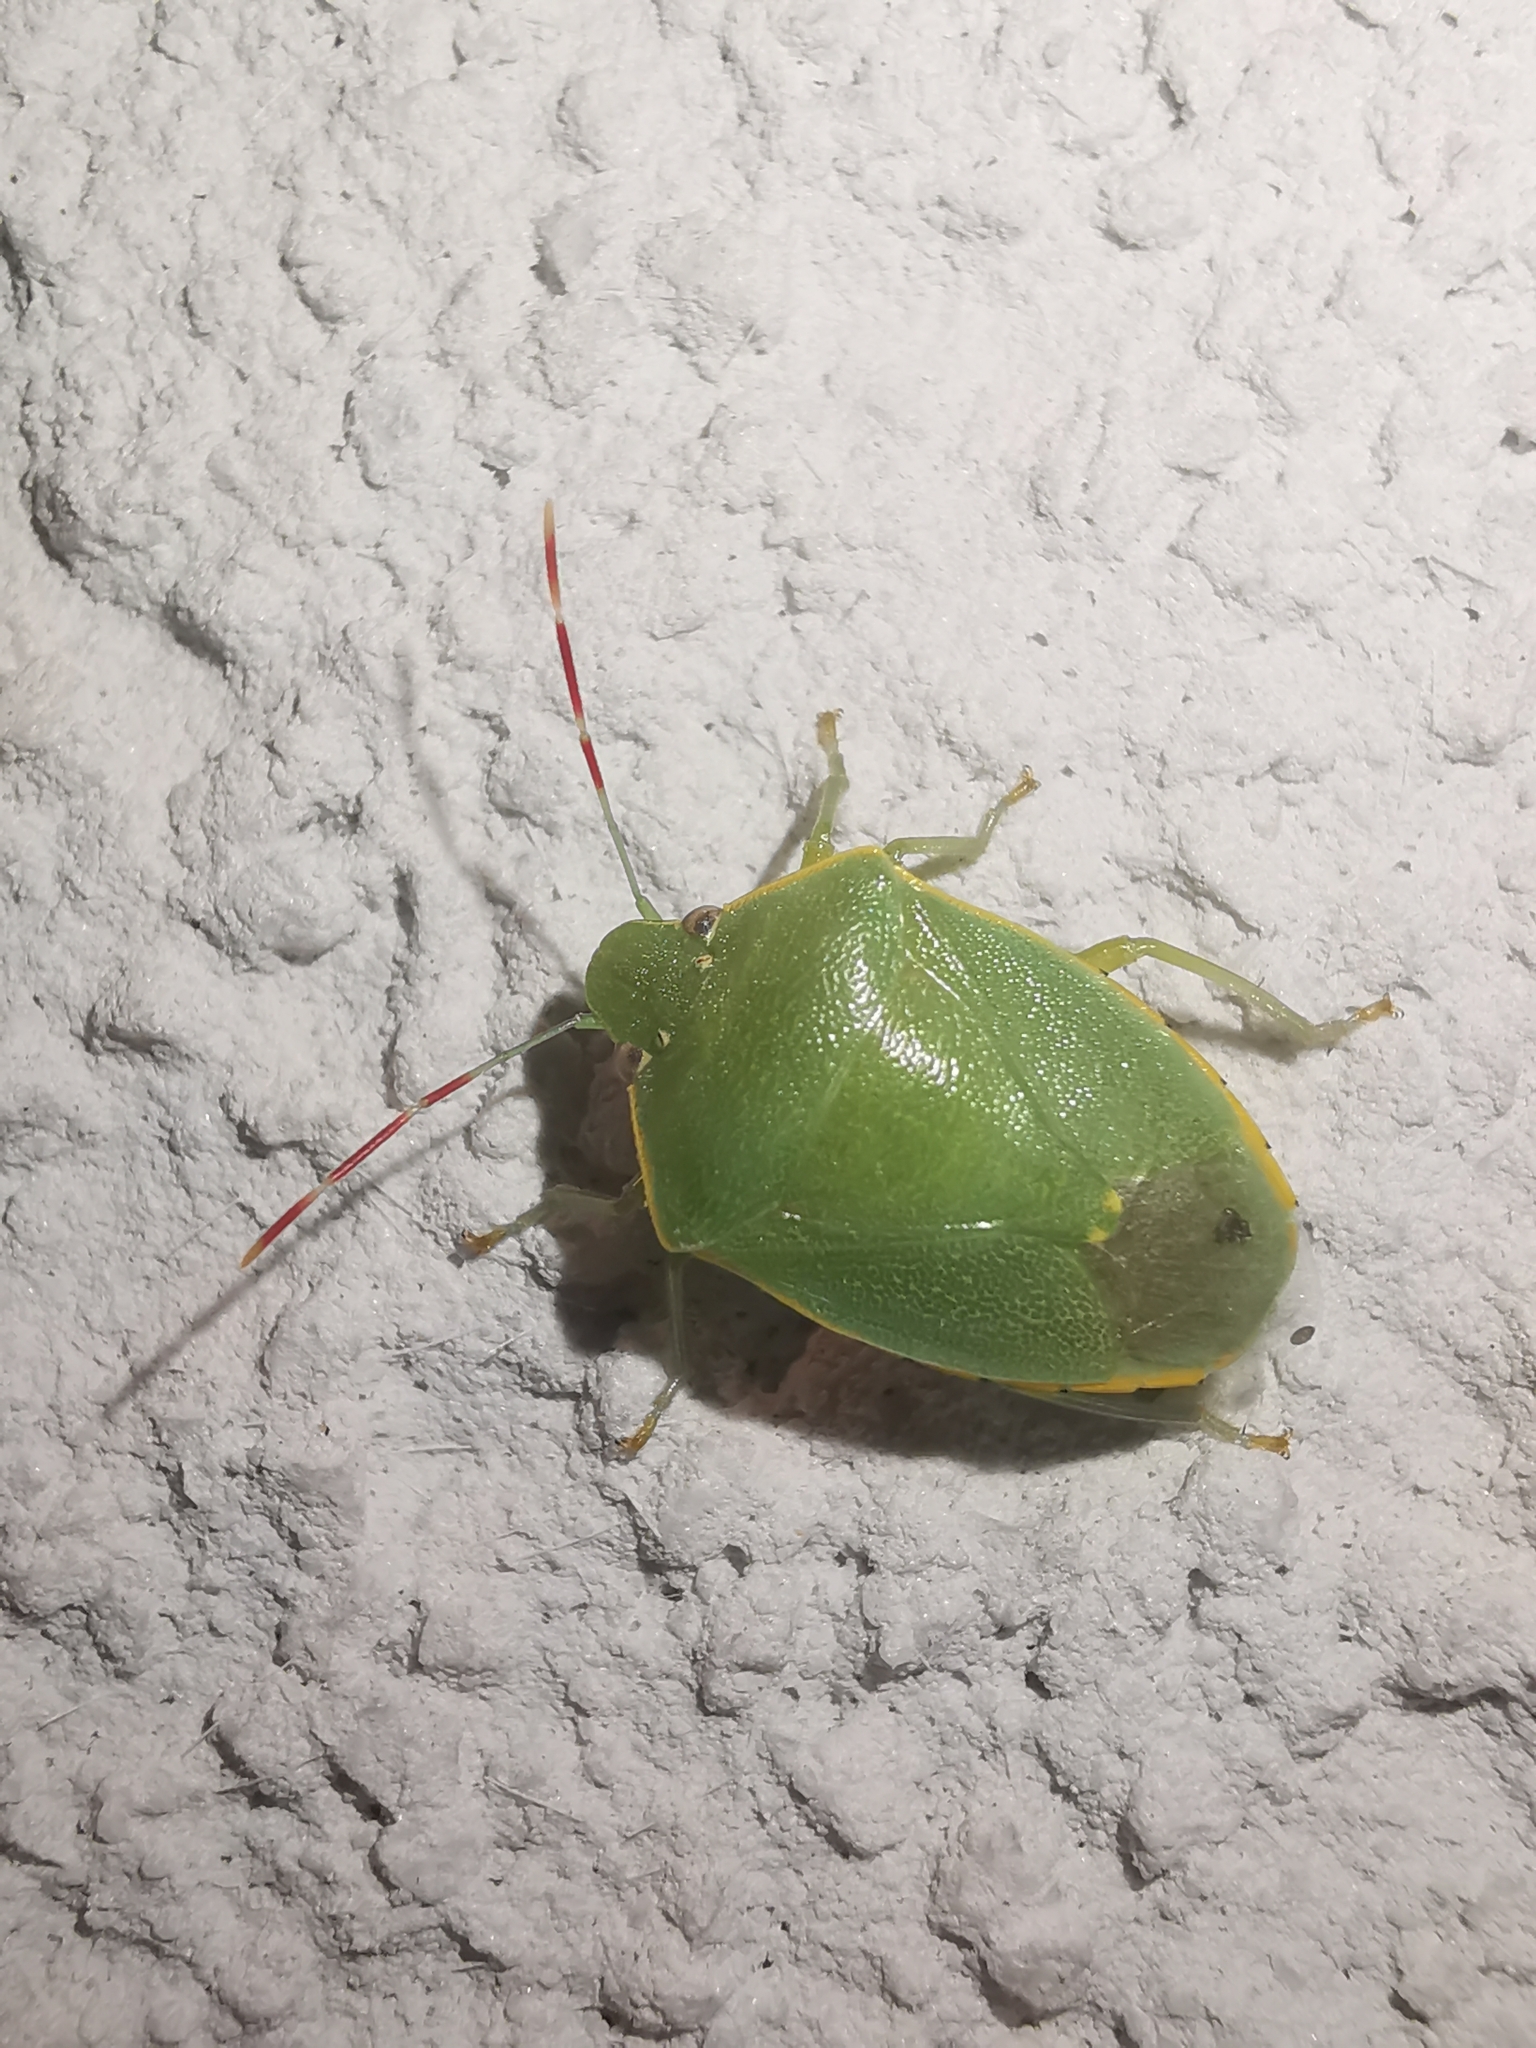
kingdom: Animalia
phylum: Arthropoda
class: Insecta
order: Hemiptera
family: Pentatomidae
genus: Acrosternum
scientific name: Acrosternum heegeri
